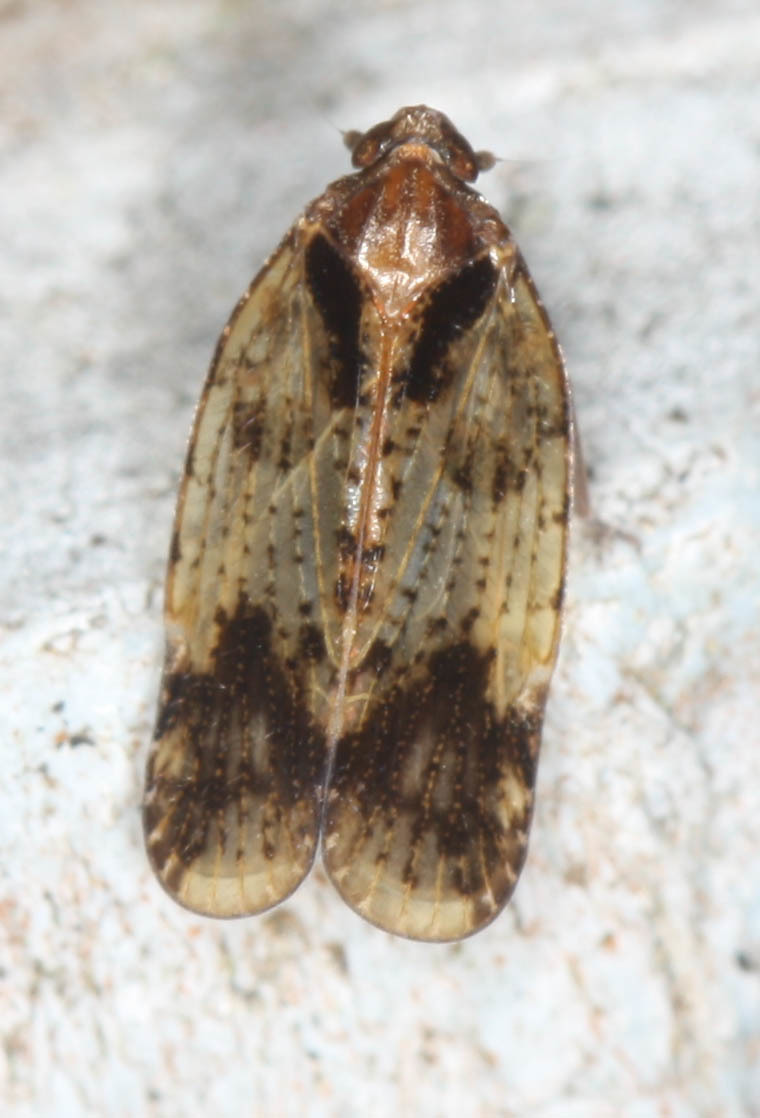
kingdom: Animalia
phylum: Arthropoda
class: Insecta
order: Hemiptera
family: Cixiidae
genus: Iolania
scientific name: Iolania perkinsi
